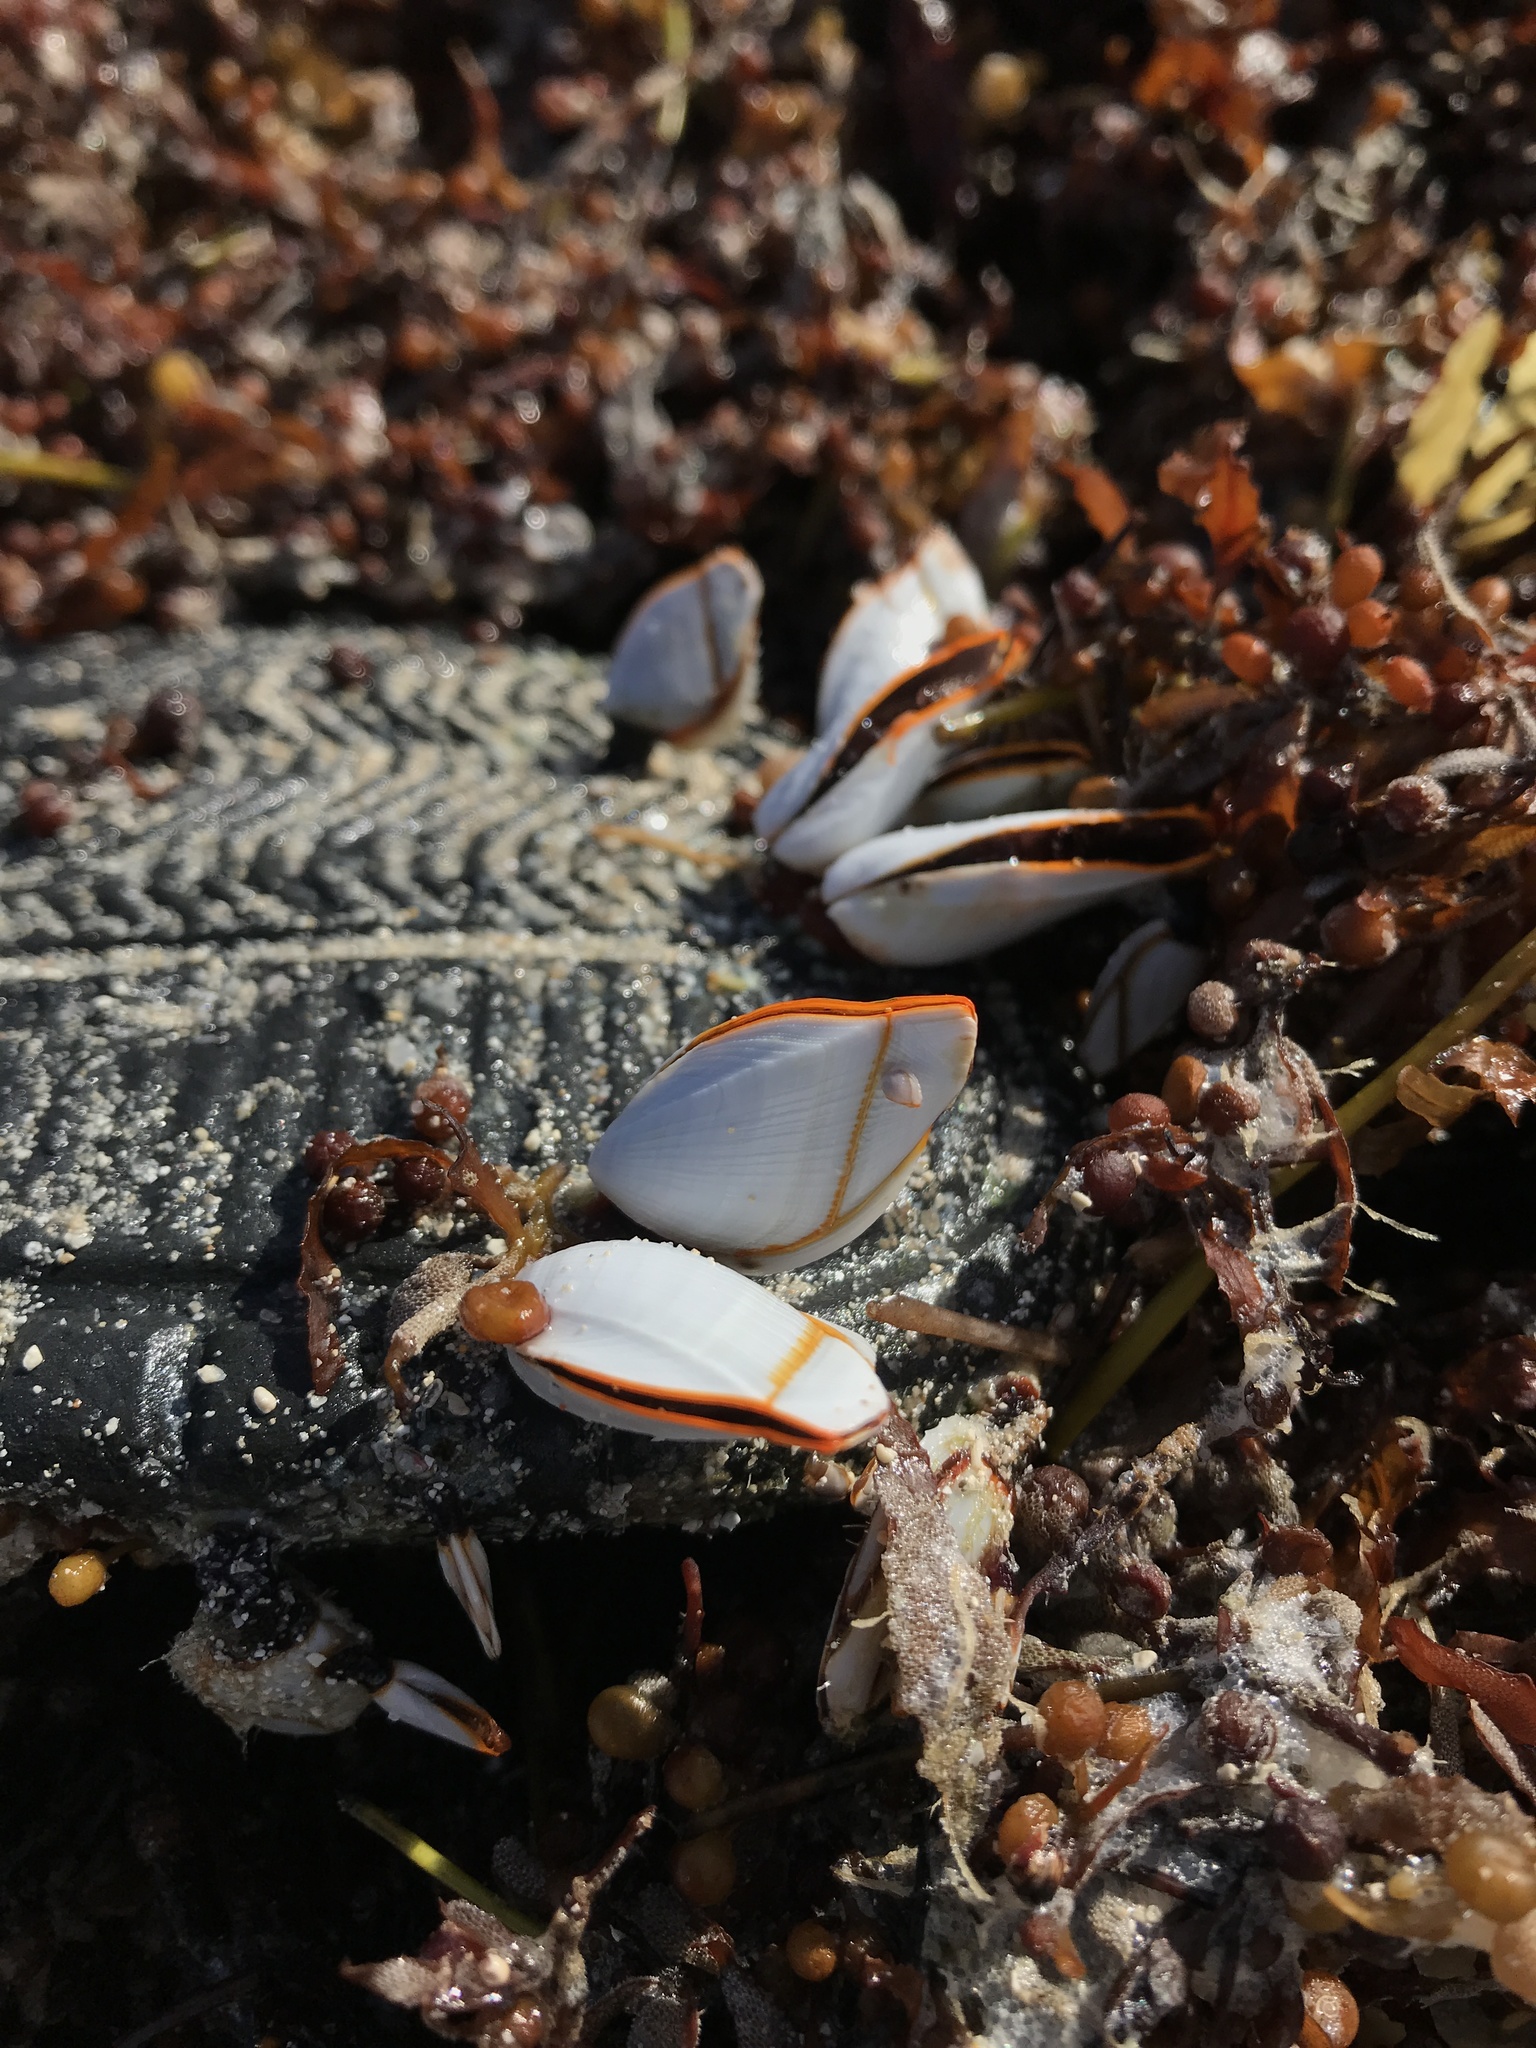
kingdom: Animalia
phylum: Arthropoda
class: Maxillopoda
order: Pedunculata
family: Lepadidae
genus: Lepas
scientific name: Lepas anserifera
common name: Goose barnacle
